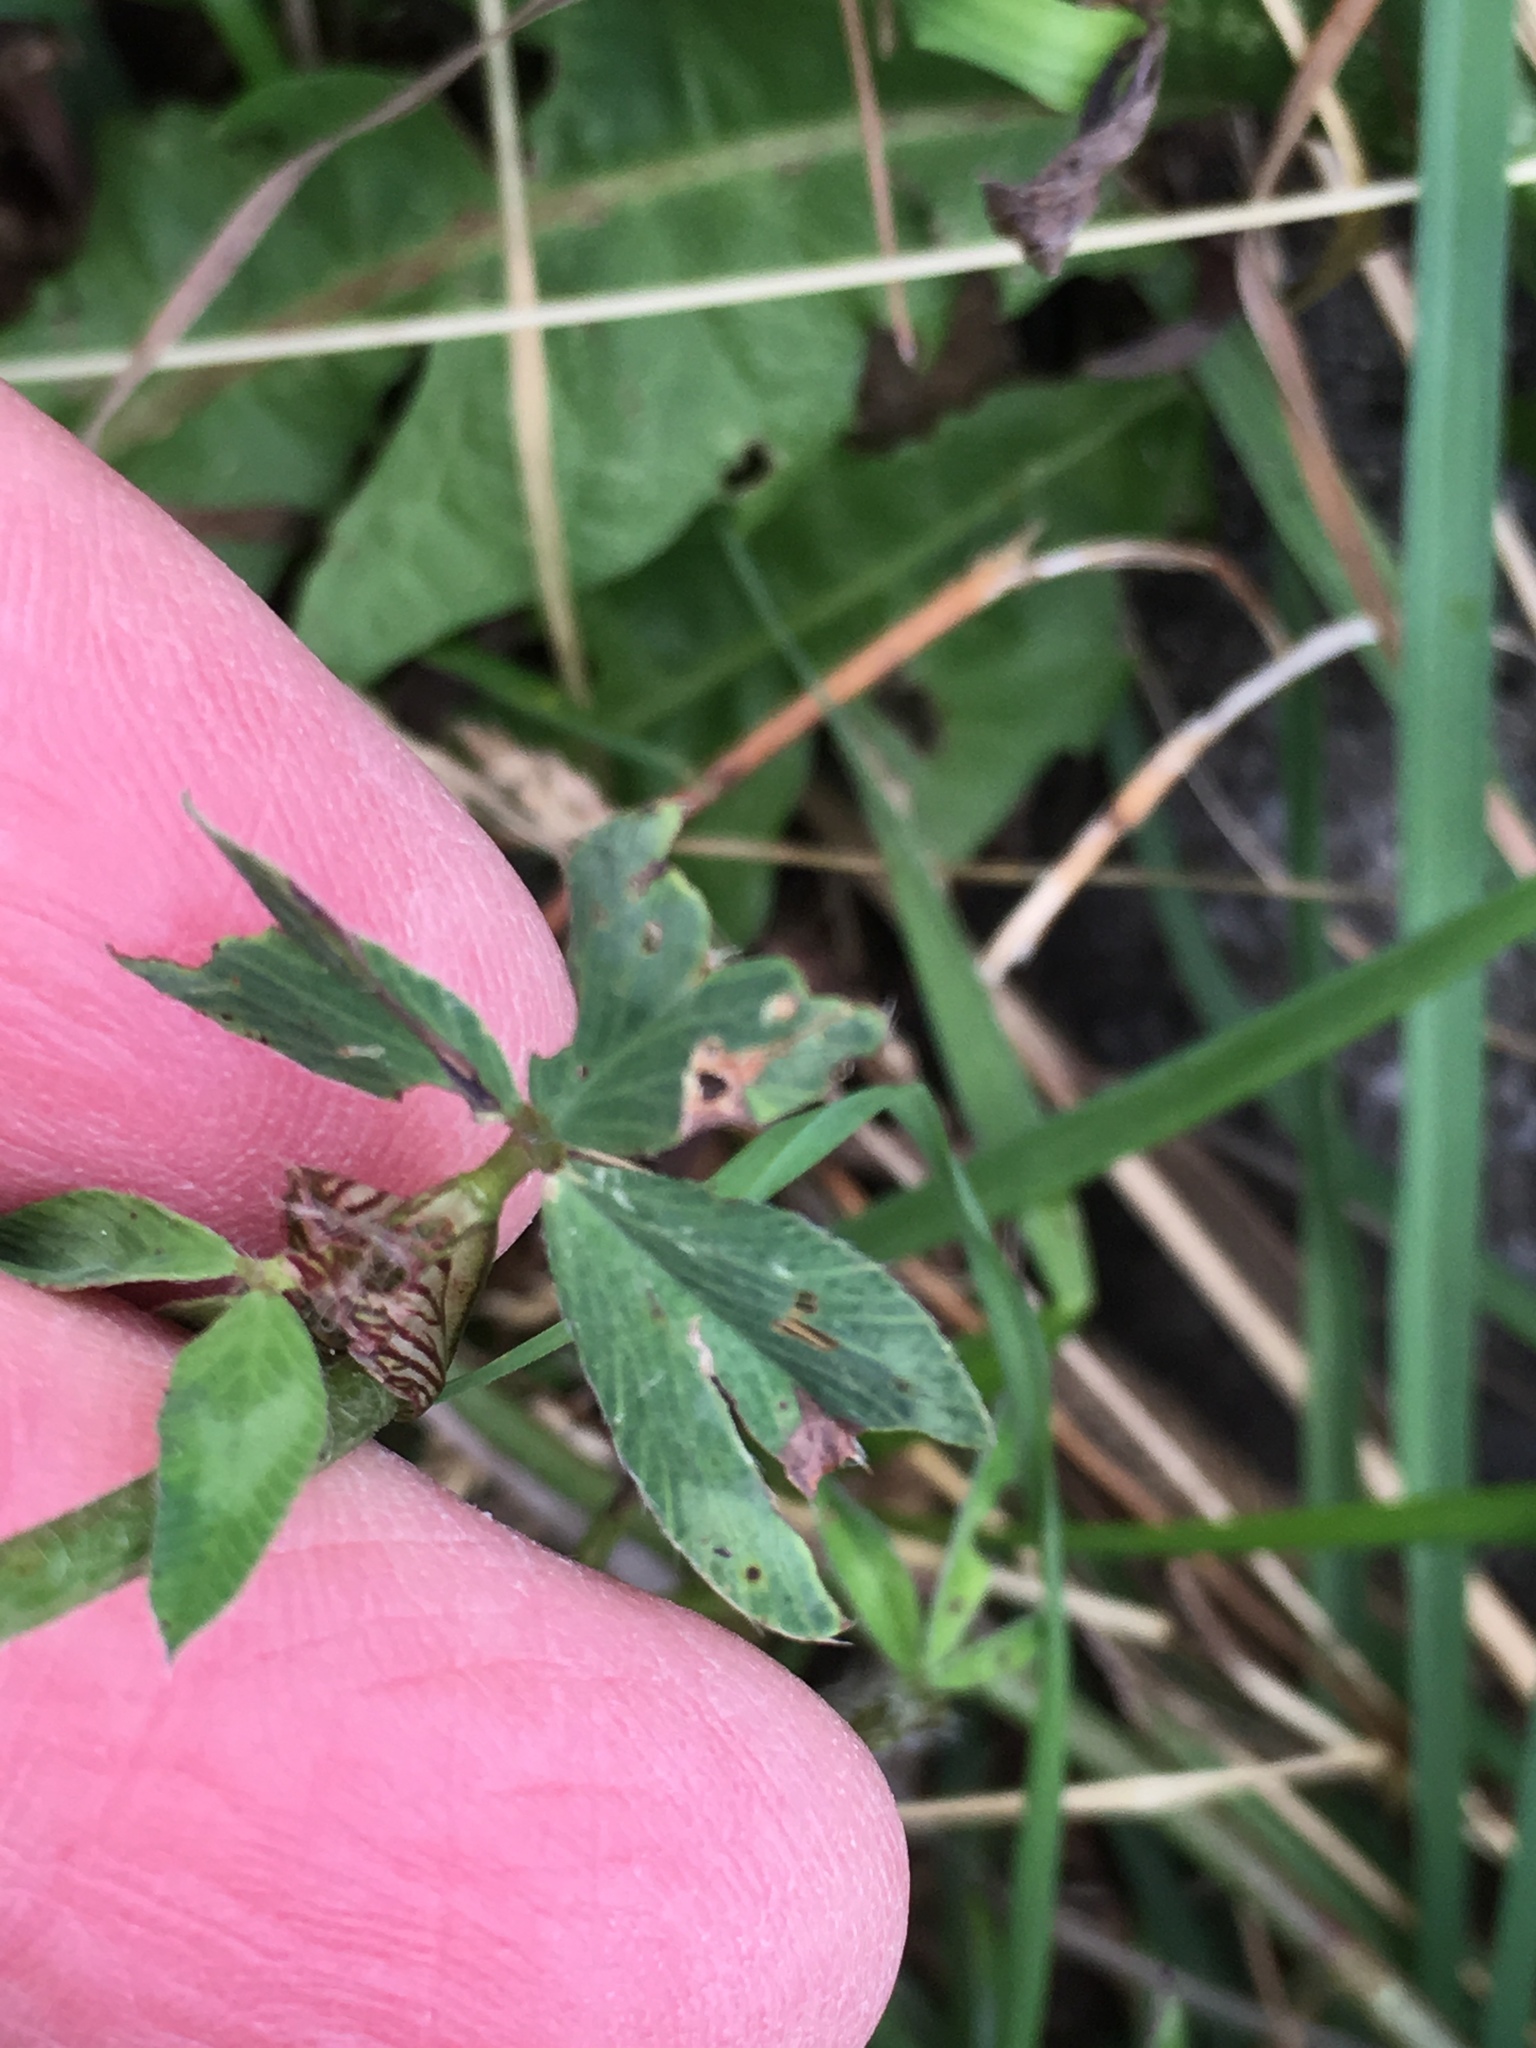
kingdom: Plantae
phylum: Tracheophyta
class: Magnoliopsida
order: Fabales
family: Fabaceae
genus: Trifolium
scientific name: Trifolium pratense
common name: Red clover
